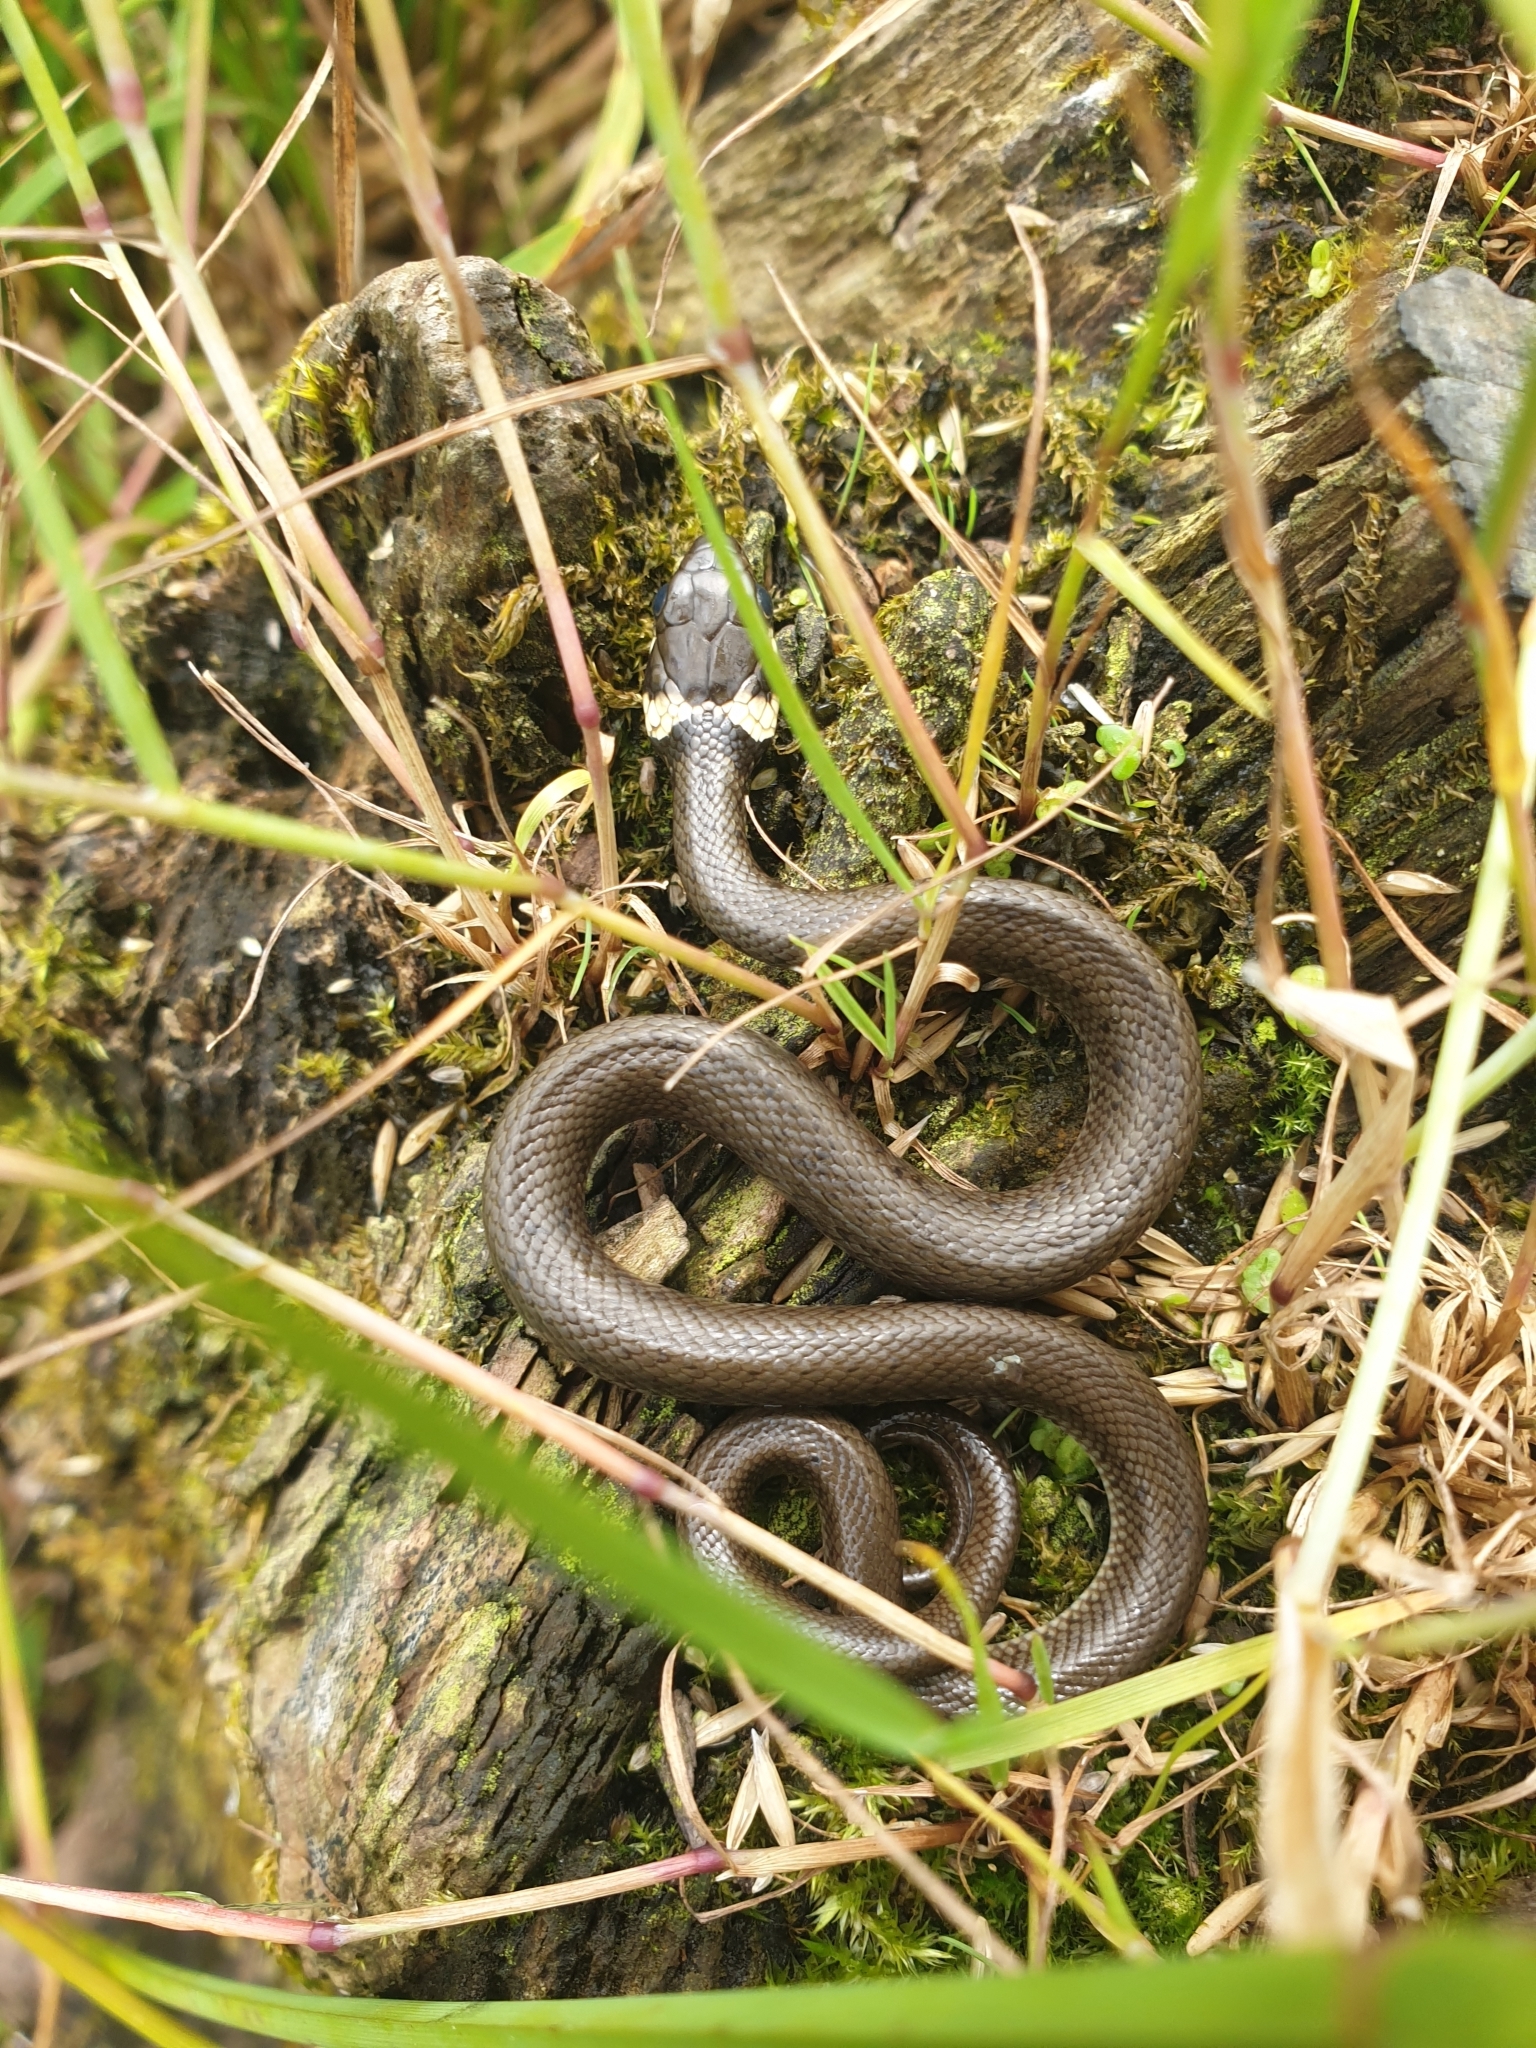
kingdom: Animalia
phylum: Chordata
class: Squamata
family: Colubridae
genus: Natrix
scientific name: Natrix natrix
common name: Grass snake
